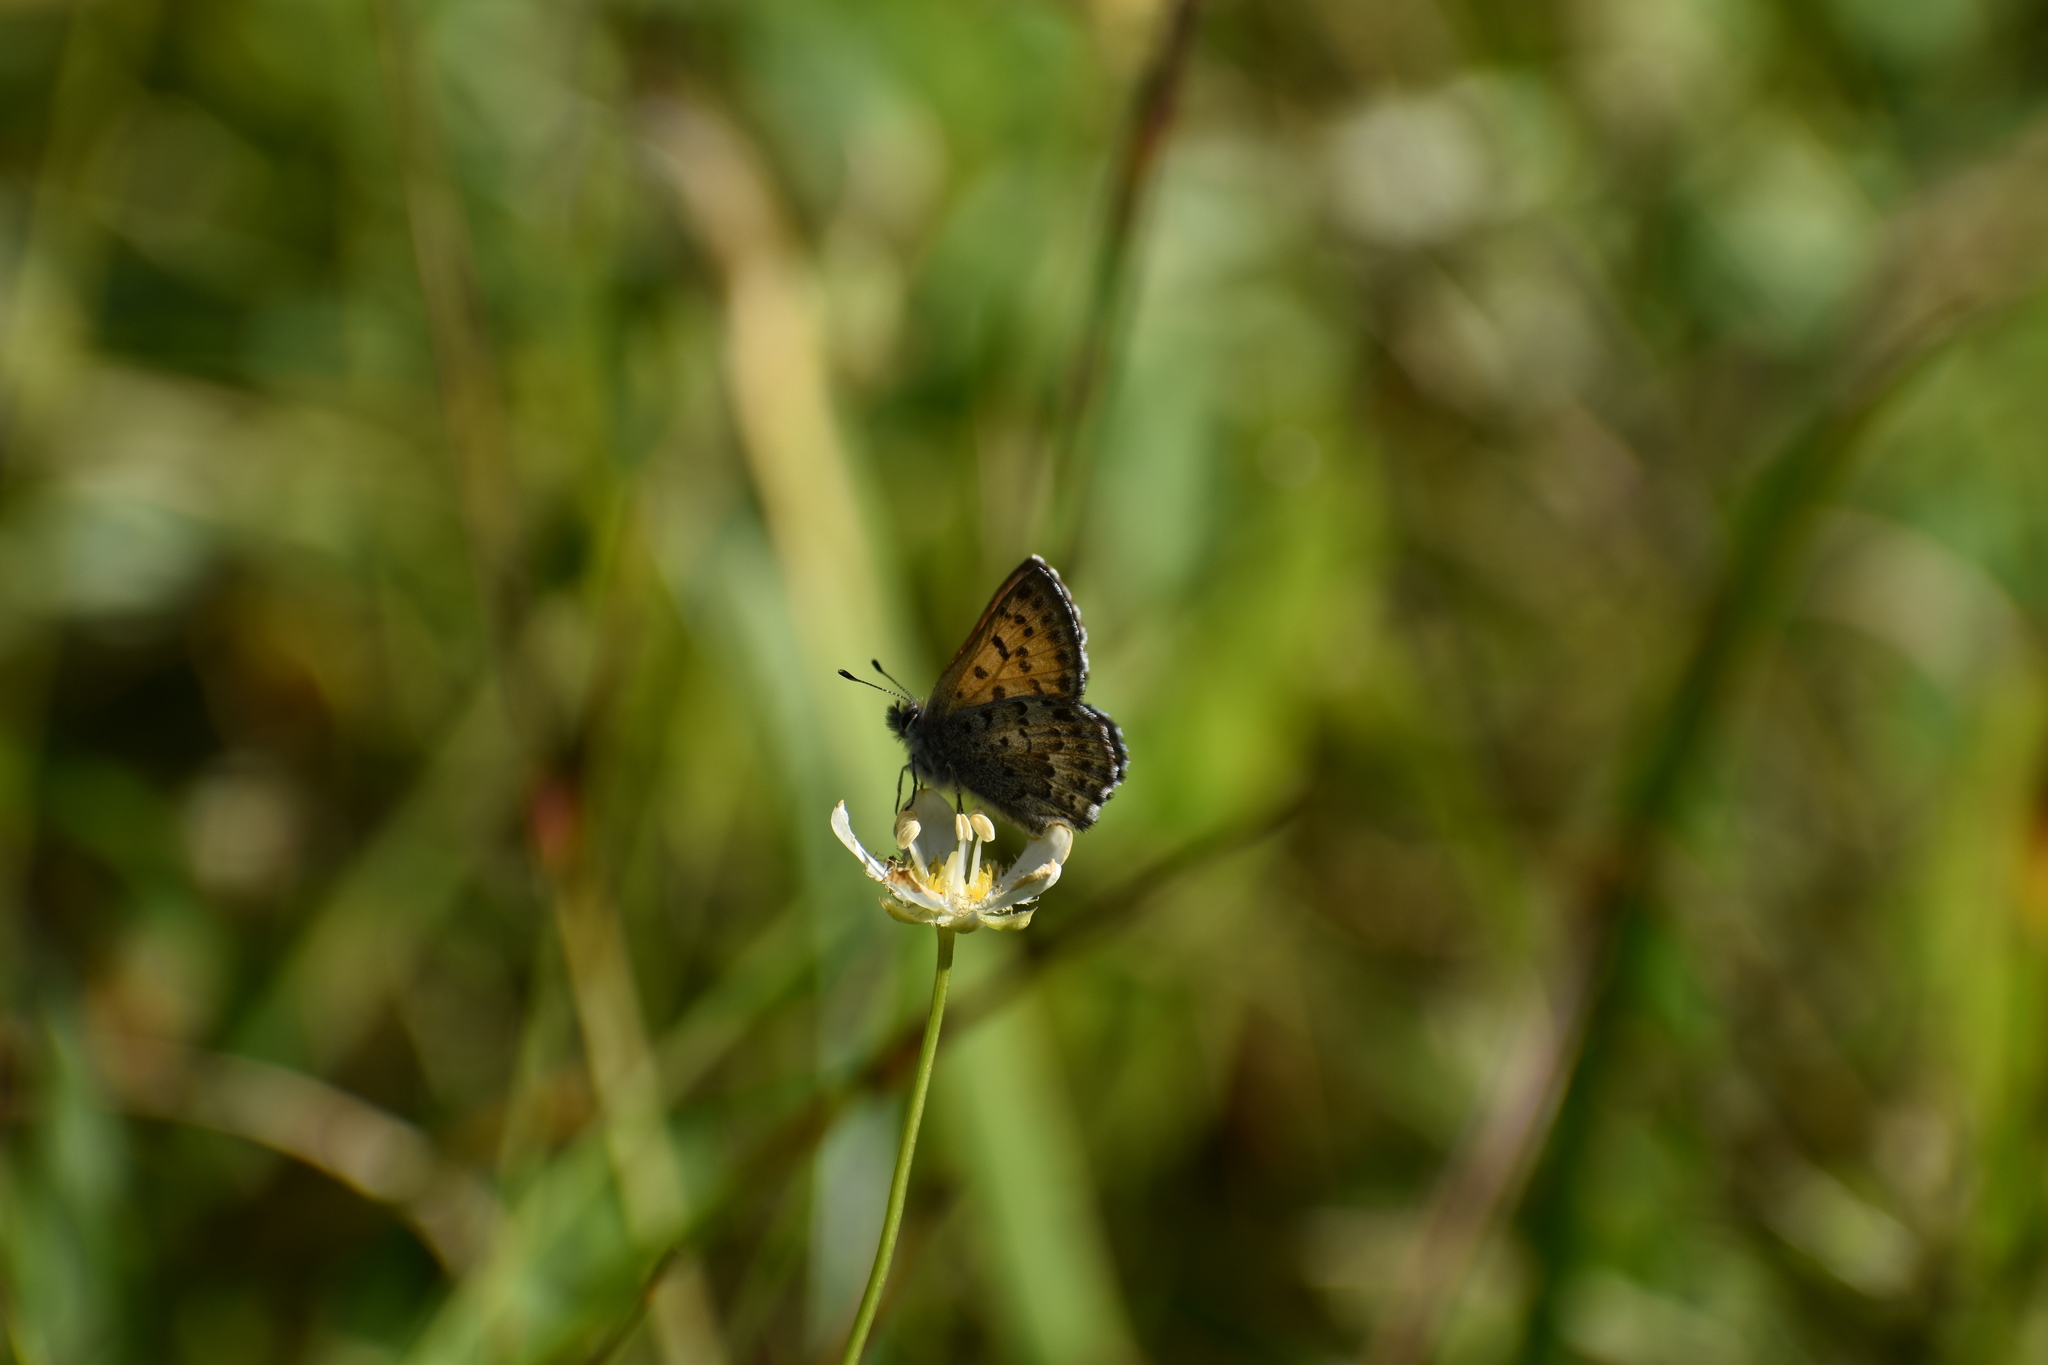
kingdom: Animalia
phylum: Arthropoda
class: Insecta
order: Lepidoptera
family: Lycaenidae
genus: Tharsalea
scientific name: Tharsalea mariposa
